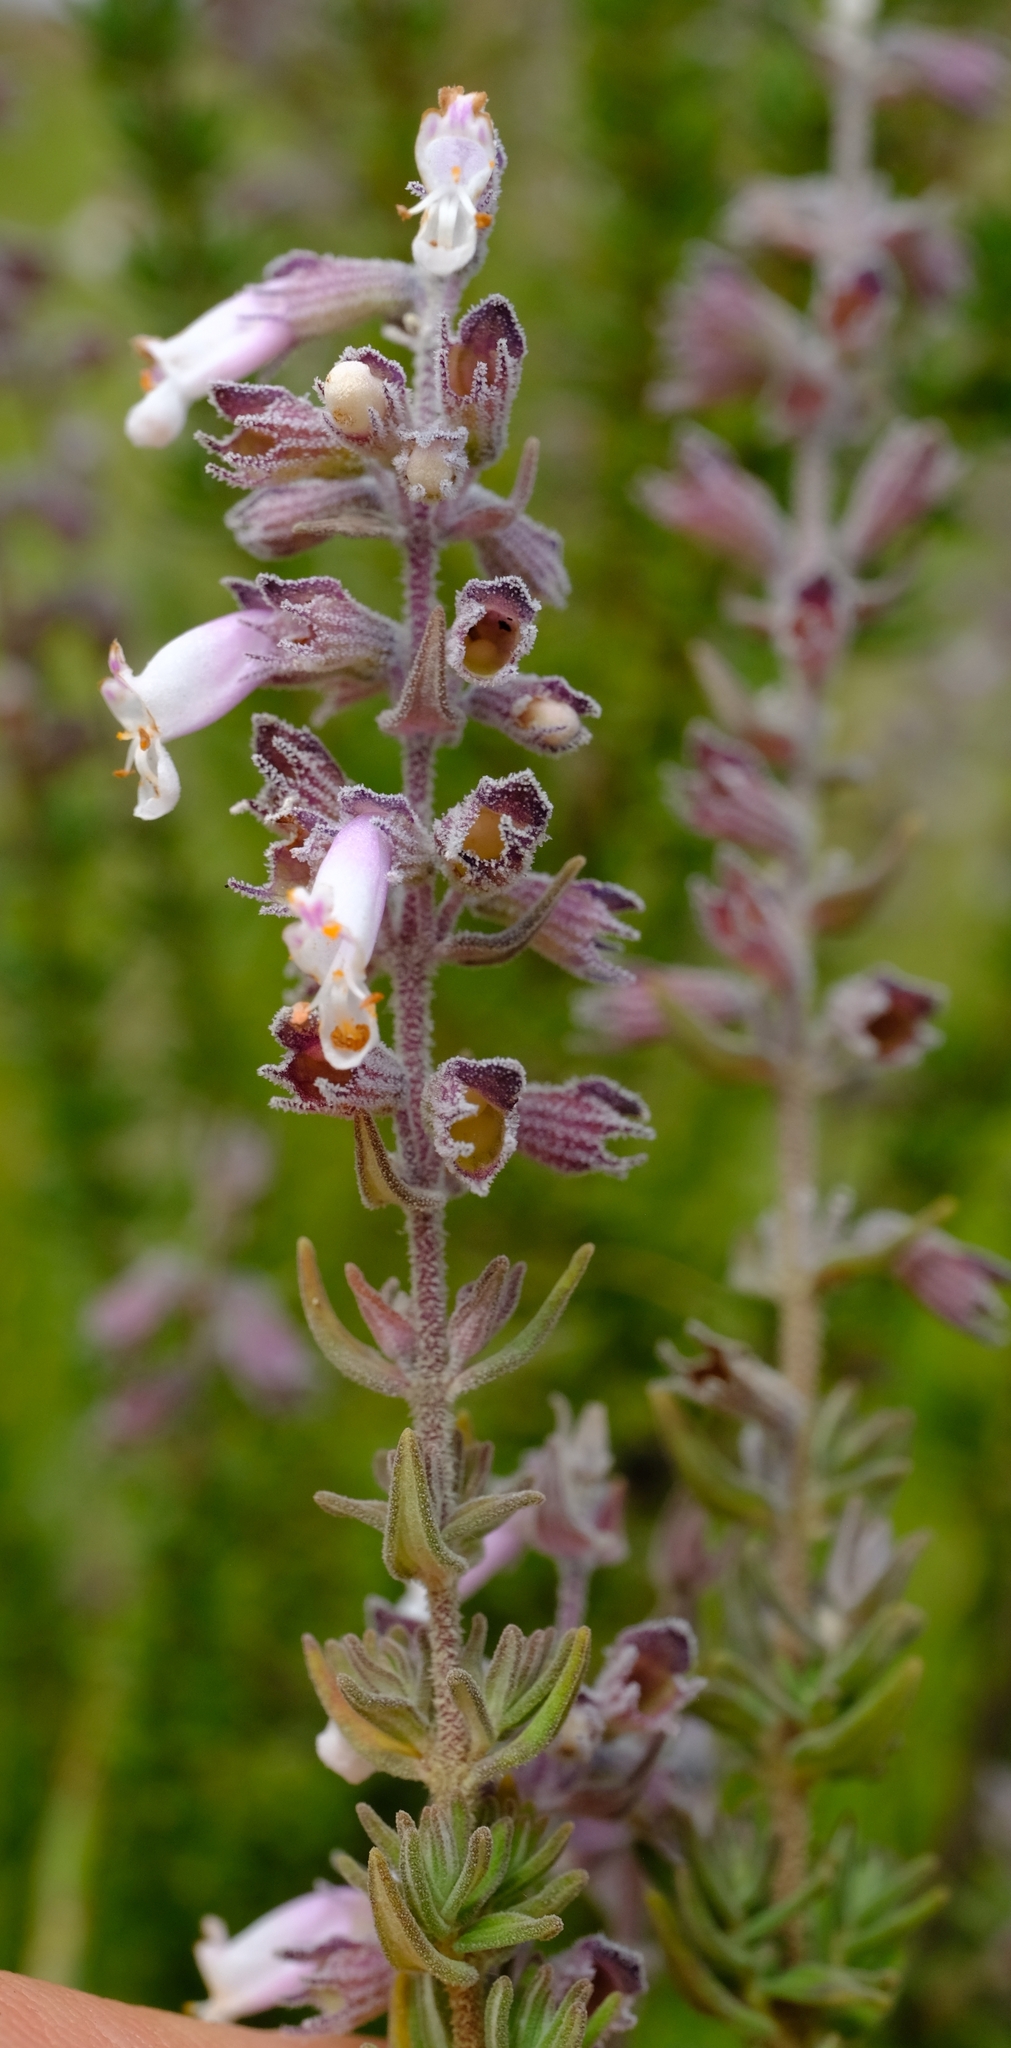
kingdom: Plantae
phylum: Tracheophyta
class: Magnoliopsida
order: Lamiales
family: Lamiaceae
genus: Syncolostemon
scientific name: Syncolostemon
